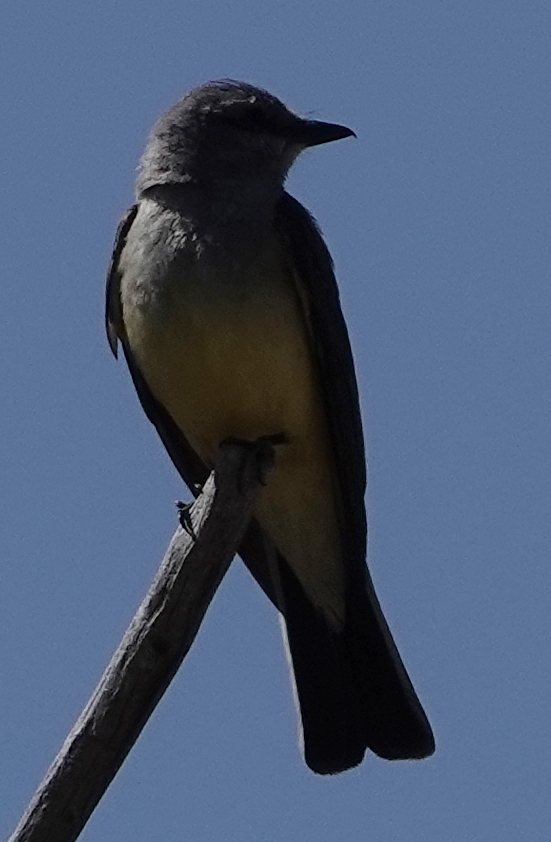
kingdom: Animalia
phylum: Chordata
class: Aves
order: Passeriformes
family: Tyrannidae
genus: Tyrannus
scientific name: Tyrannus verticalis
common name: Western kingbird
